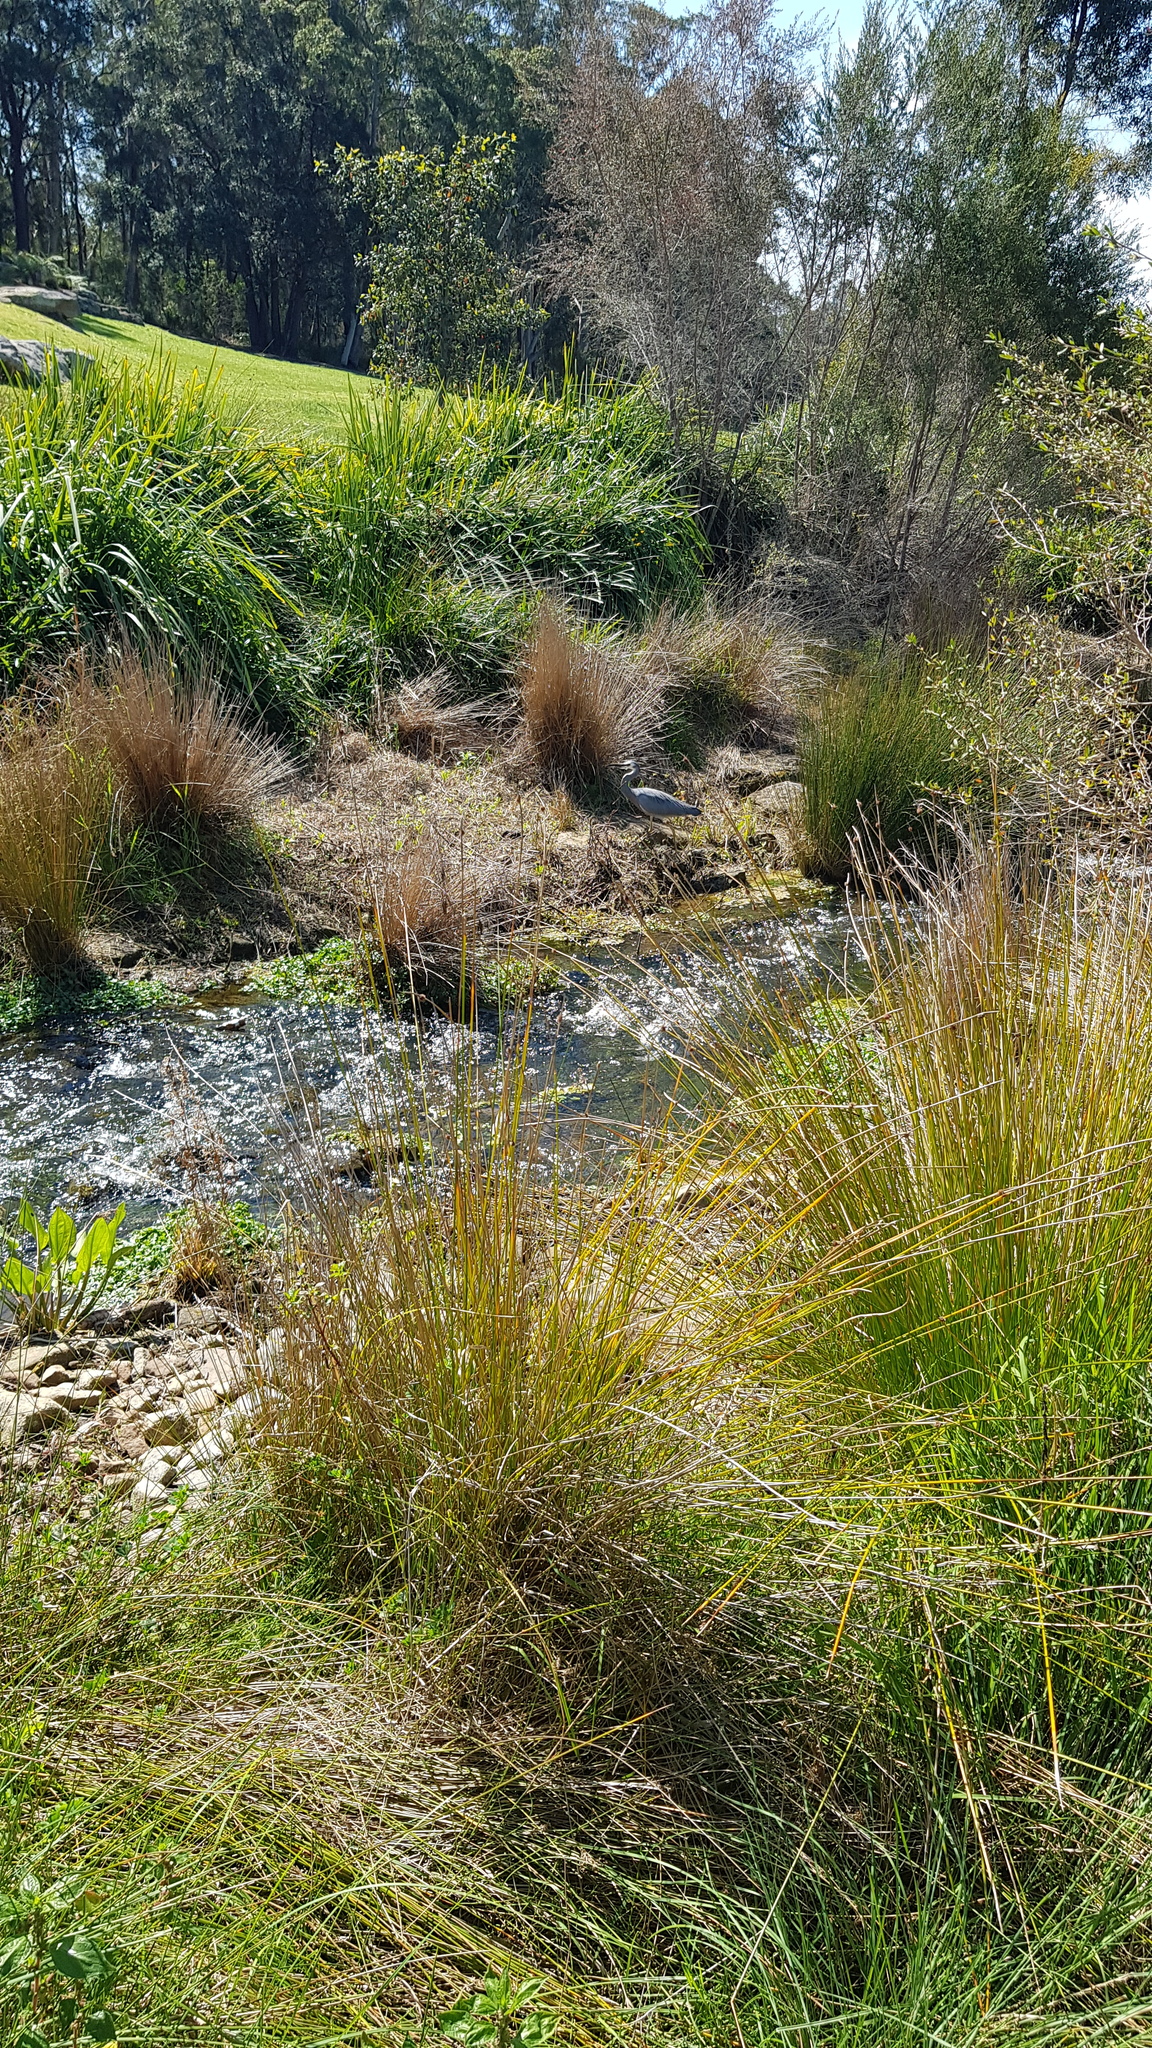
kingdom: Animalia
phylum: Chordata
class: Aves
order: Pelecaniformes
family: Ardeidae
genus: Egretta
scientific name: Egretta novaehollandiae
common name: White-faced heron
